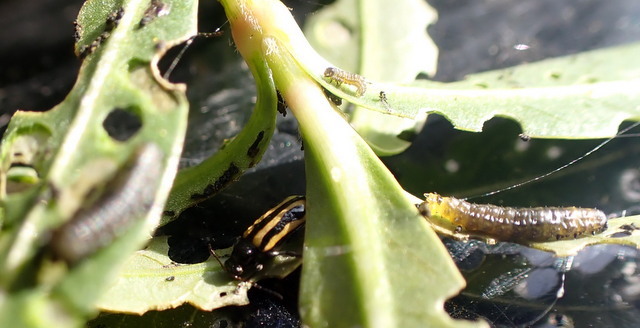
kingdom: Animalia
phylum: Arthropoda
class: Insecta
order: Coleoptera
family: Chrysomelidae
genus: Agasicles
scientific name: Agasicles hygrophila
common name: Alligatorweed flea beetle
